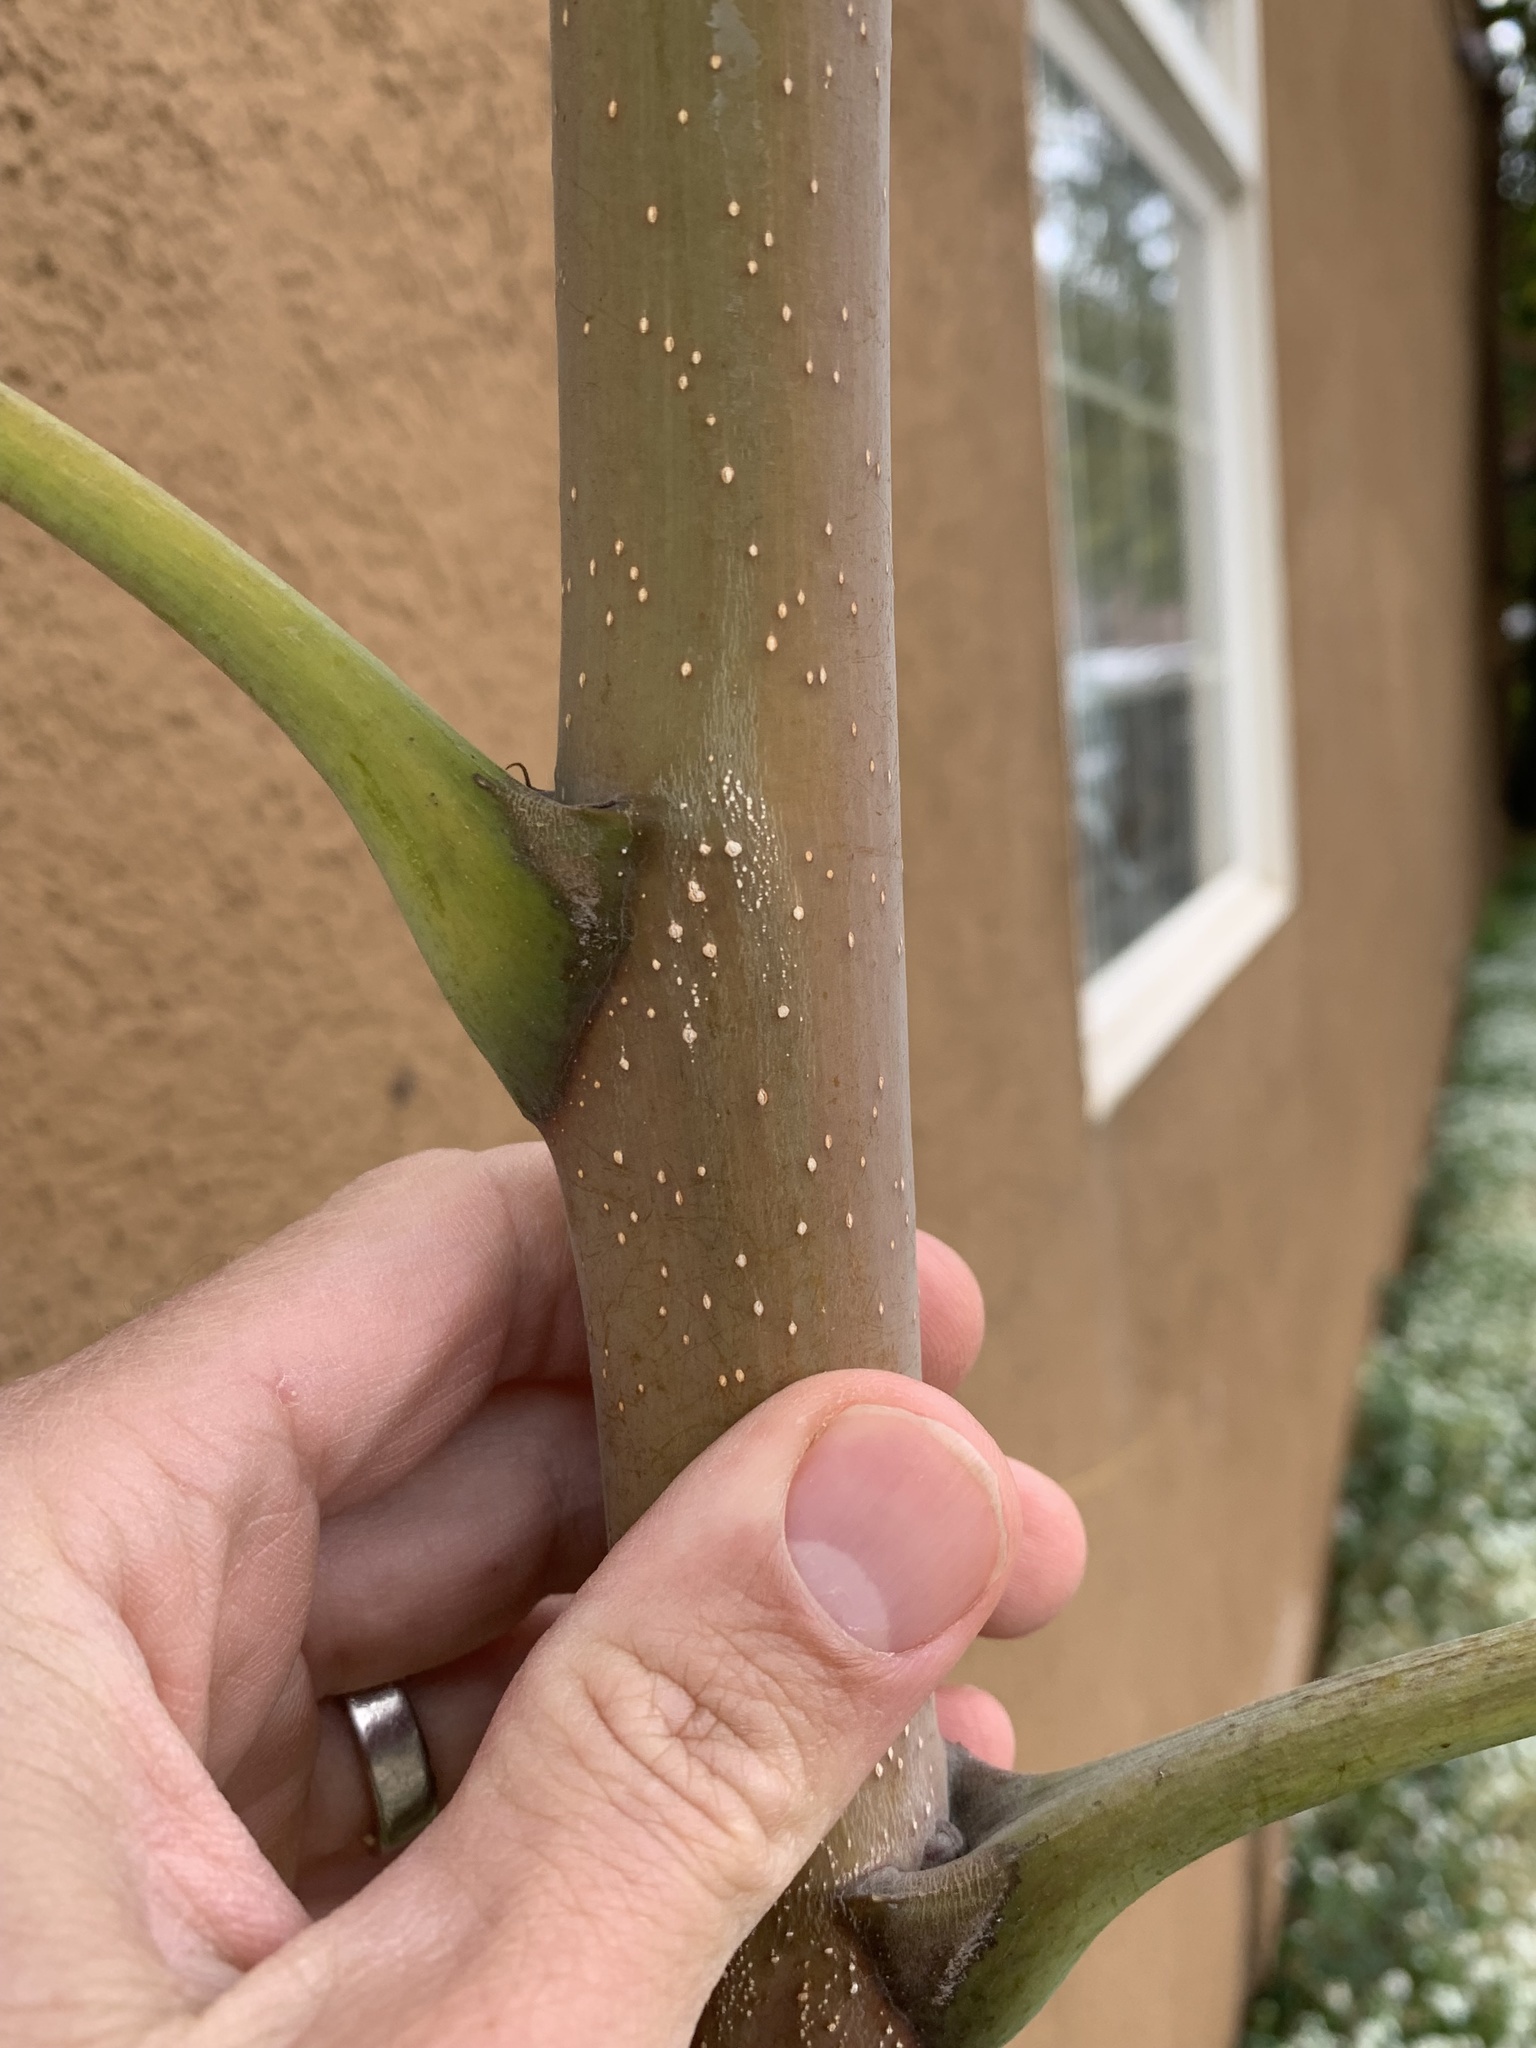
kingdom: Plantae
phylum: Tracheophyta
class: Magnoliopsida
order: Sapindales
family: Simaroubaceae
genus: Ailanthus
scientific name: Ailanthus altissima
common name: Tree-of-heaven
